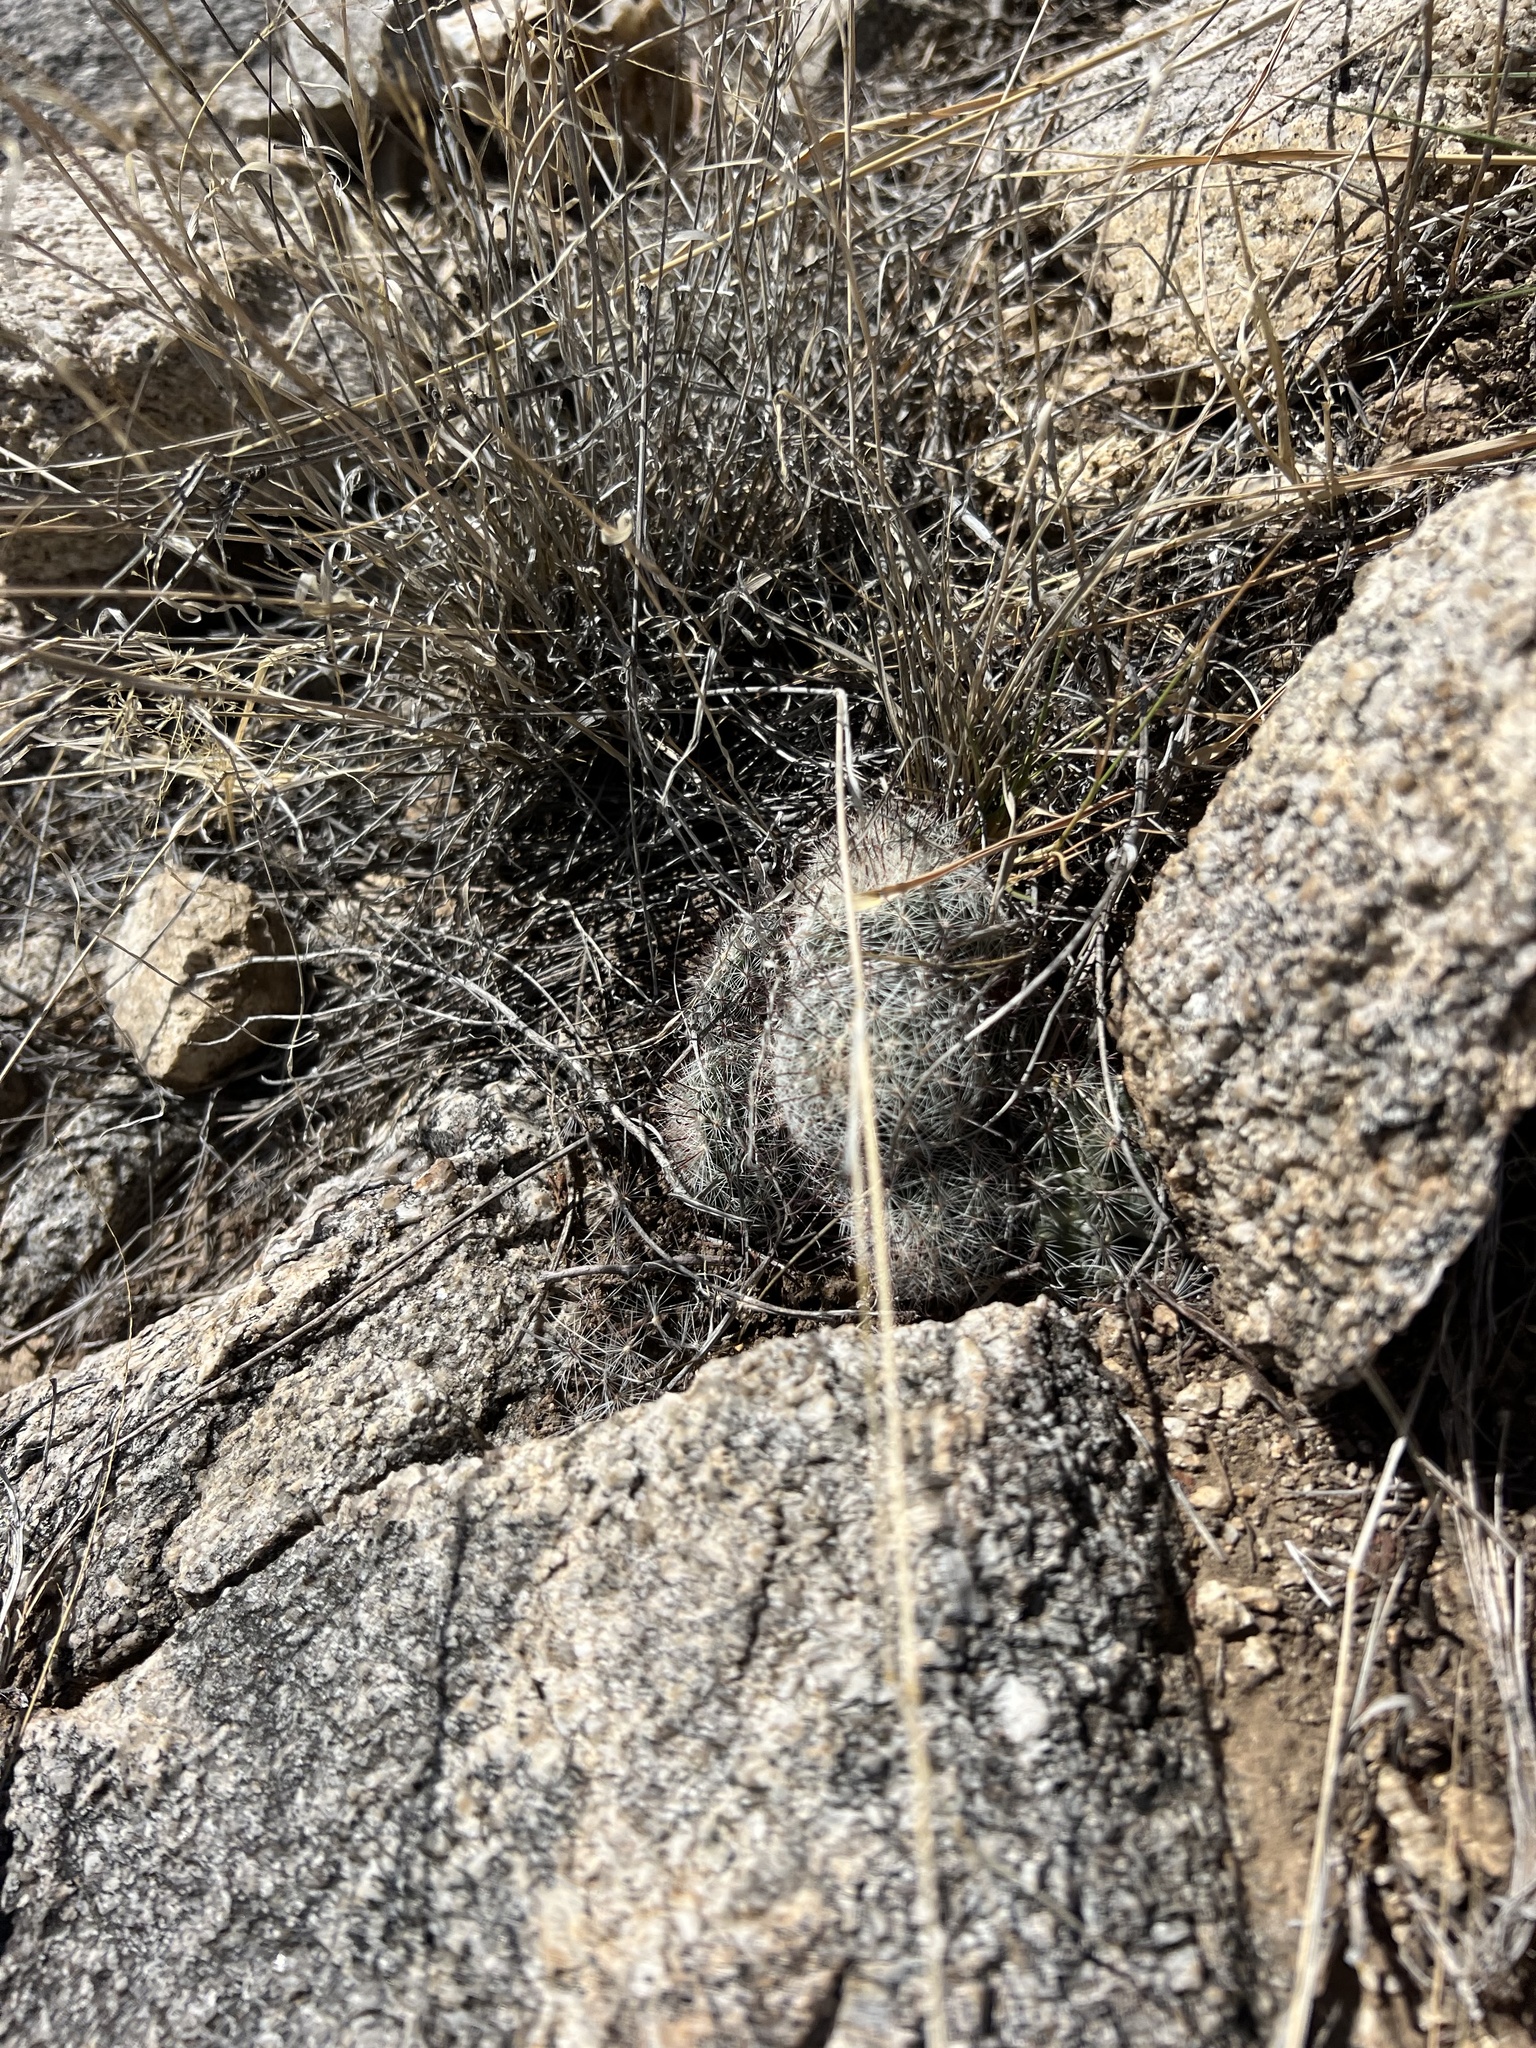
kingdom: Plantae
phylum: Tracheophyta
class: Magnoliopsida
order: Caryophyllales
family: Cactaceae
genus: Cochemiea
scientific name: Cochemiea grahamii
